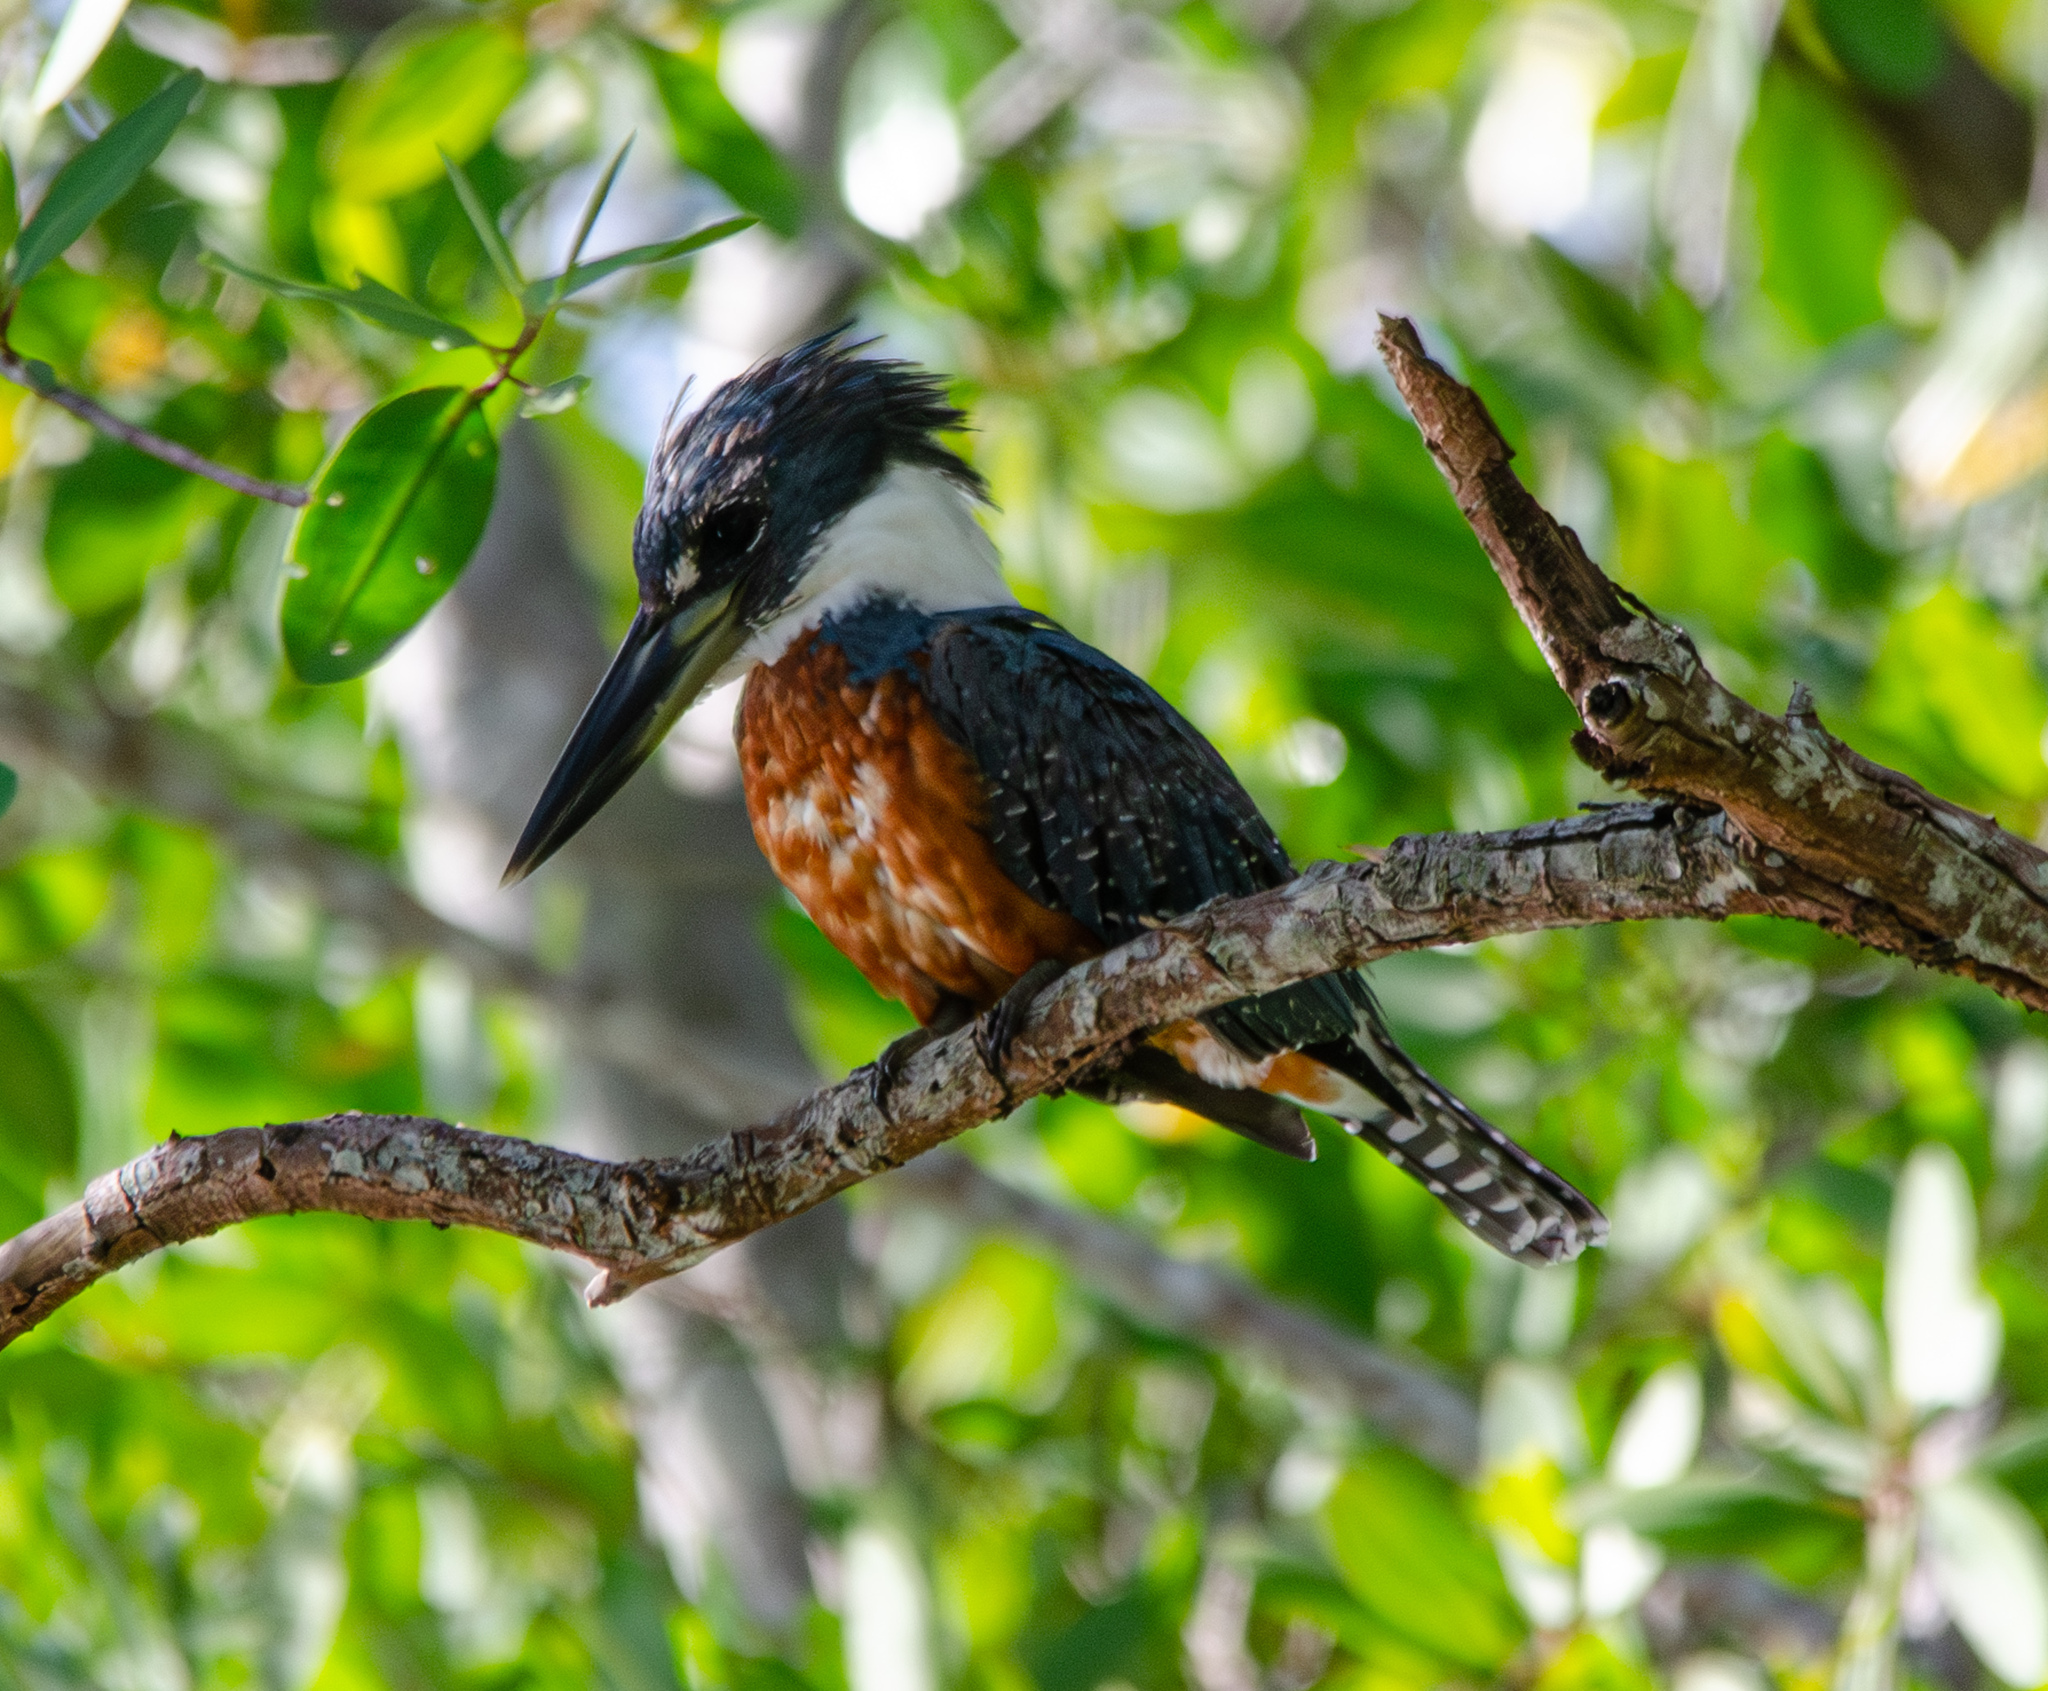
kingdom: Animalia
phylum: Chordata
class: Aves
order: Coraciiformes
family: Alcedinidae
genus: Megaceryle
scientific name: Megaceryle torquata
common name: Ringed kingfisher
